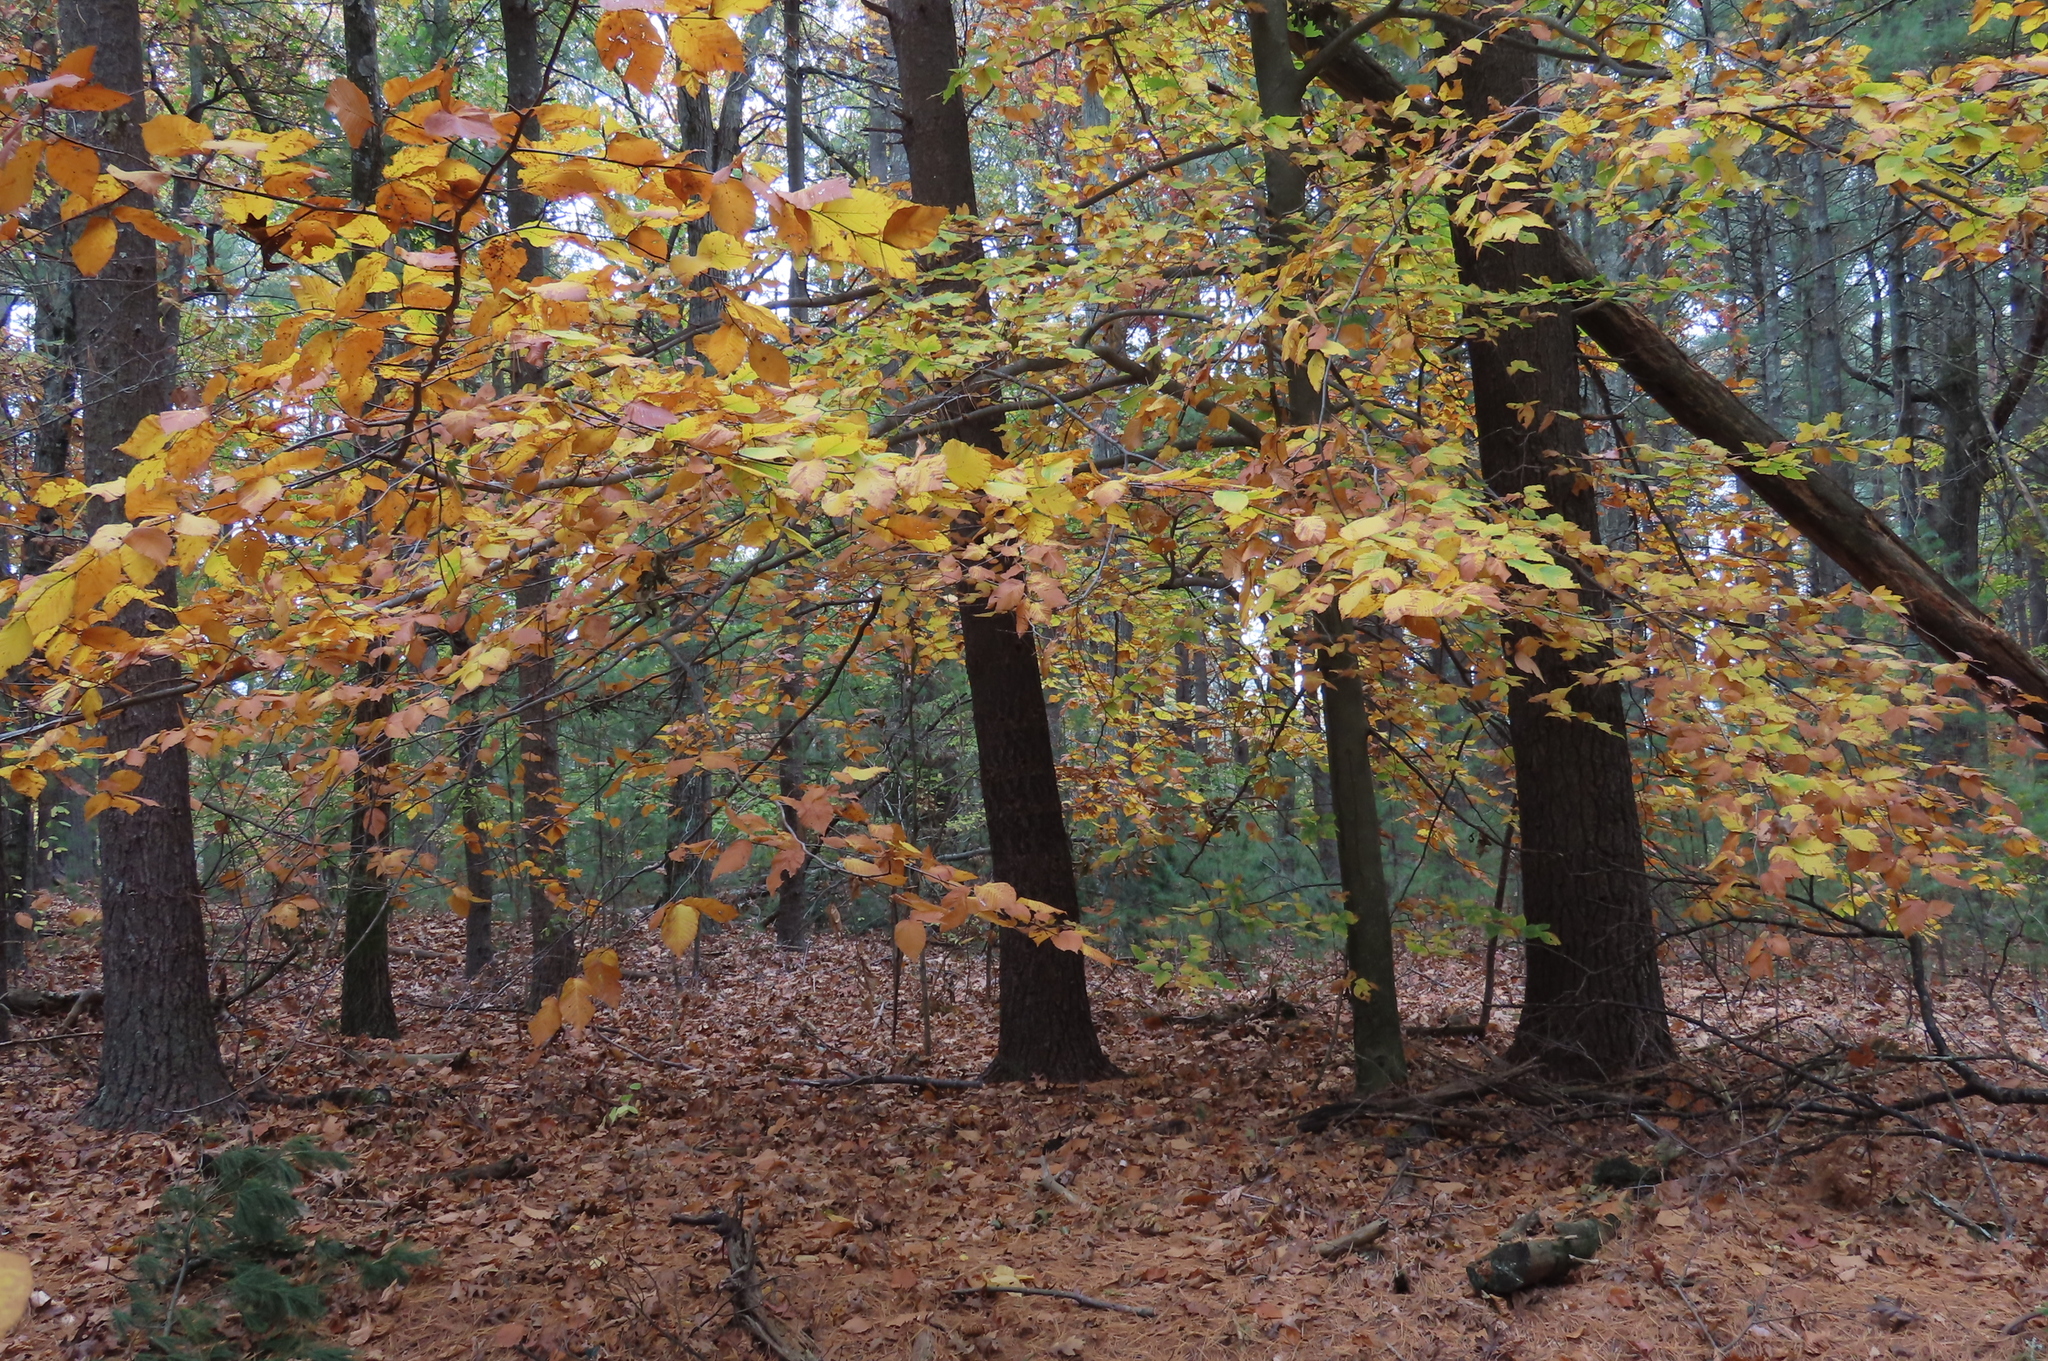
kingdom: Plantae
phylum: Tracheophyta
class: Magnoliopsida
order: Fagales
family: Fagaceae
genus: Fagus
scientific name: Fagus grandifolia
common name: American beech
